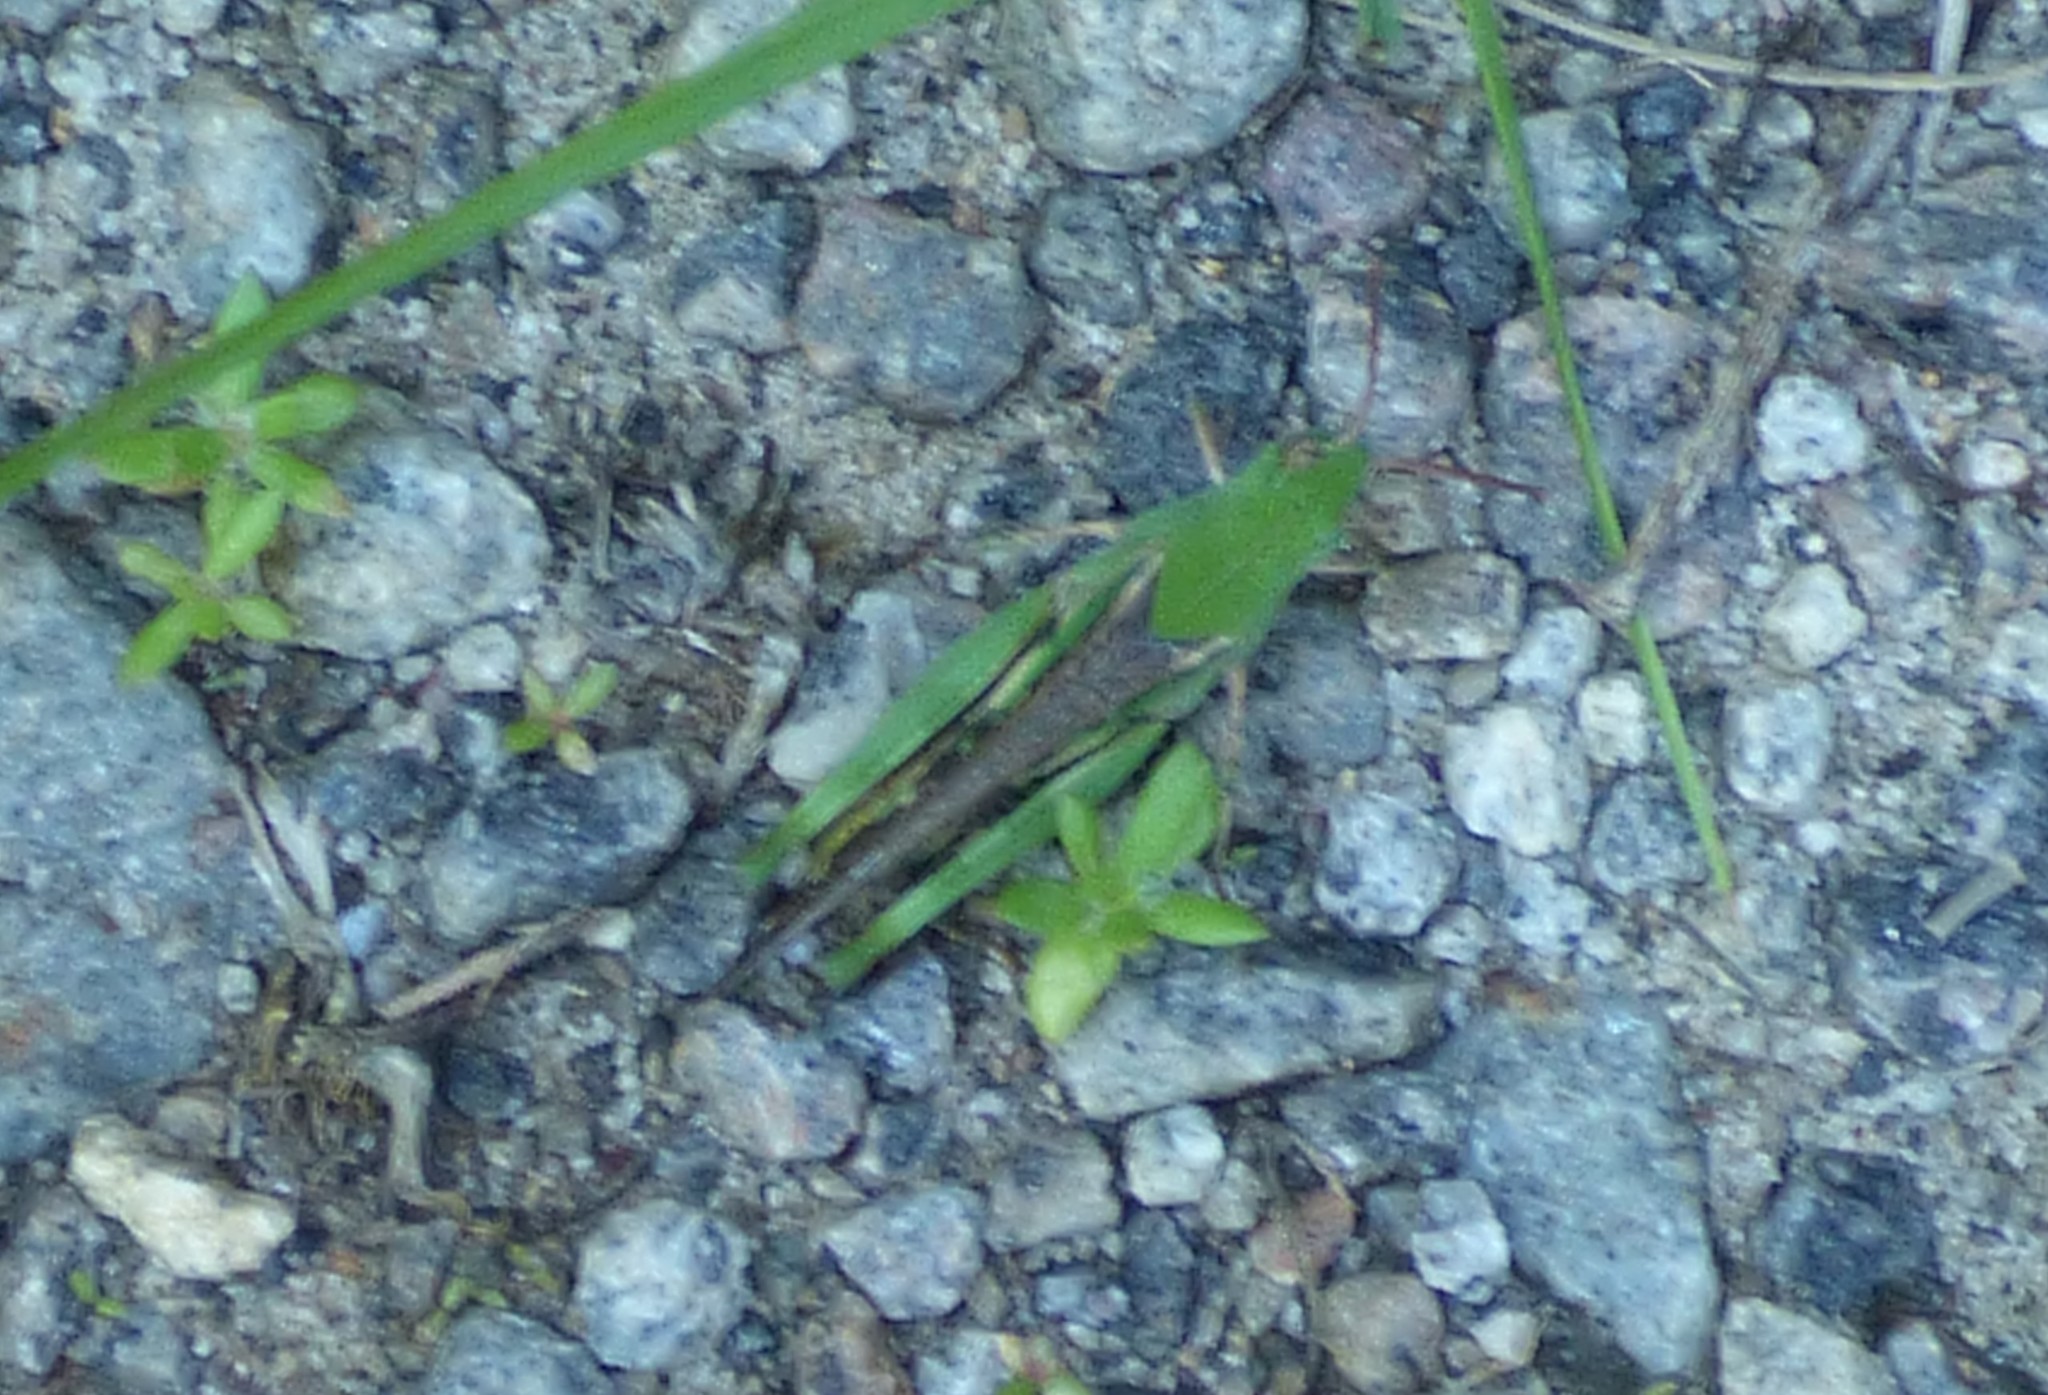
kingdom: Animalia
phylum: Arthropoda
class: Insecta
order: Orthoptera
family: Acrididae
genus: Chortophaga
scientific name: Chortophaga viridifasciata
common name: Green-striped grasshopper
